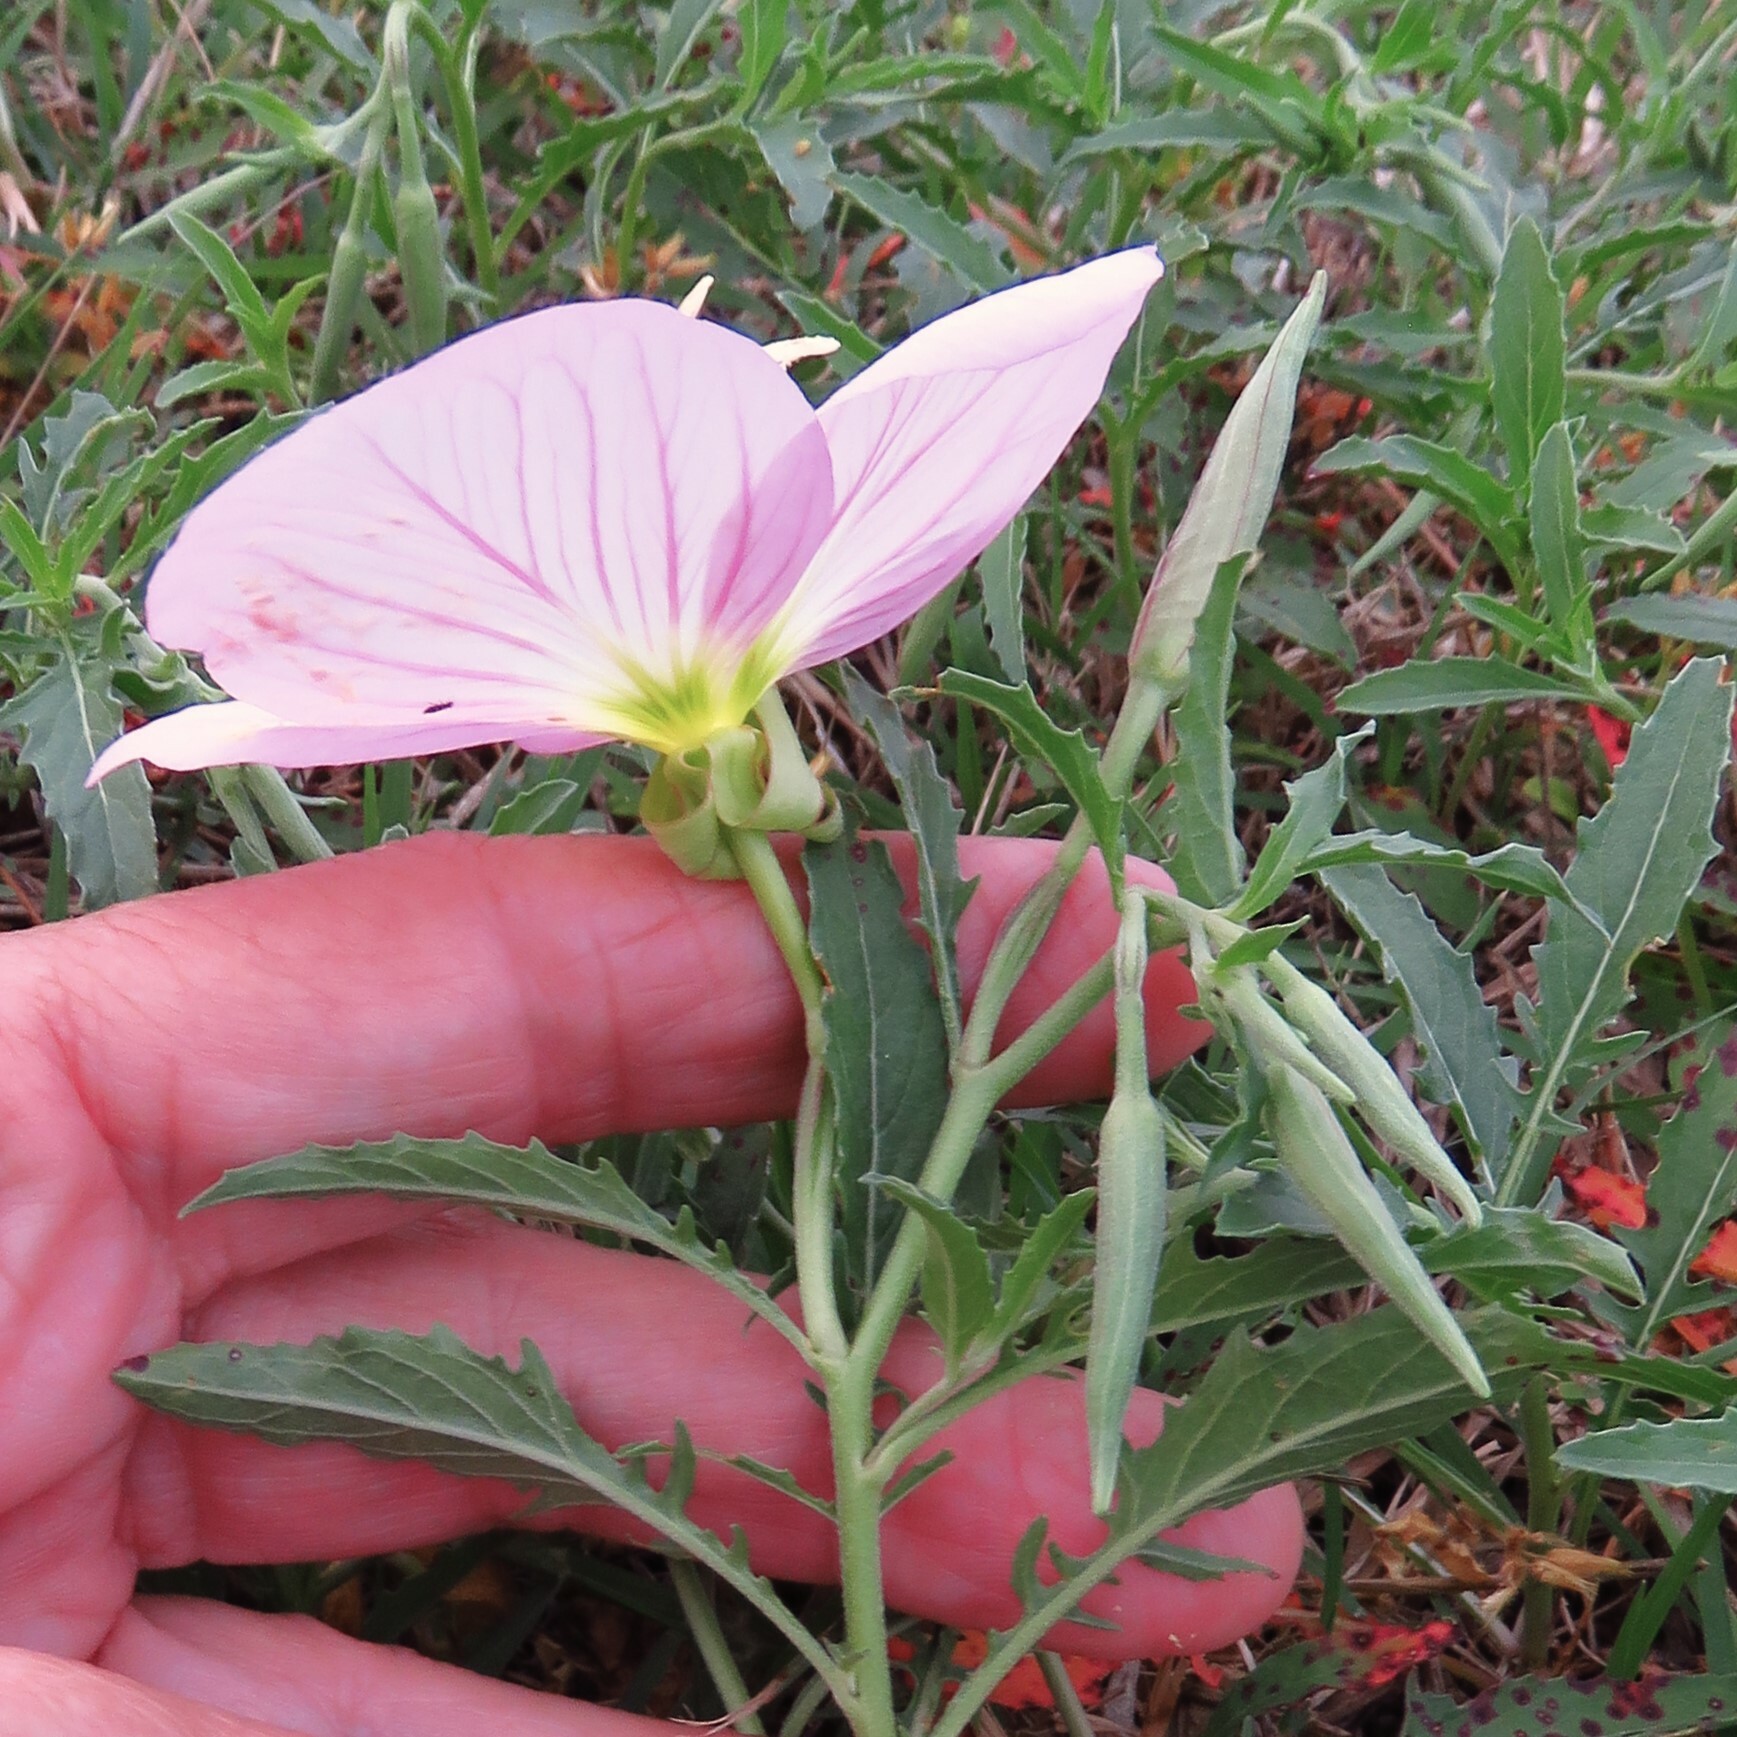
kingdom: Plantae
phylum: Tracheophyta
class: Magnoliopsida
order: Myrtales
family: Onagraceae
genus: Oenothera
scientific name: Oenothera speciosa
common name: White evening-primrose
